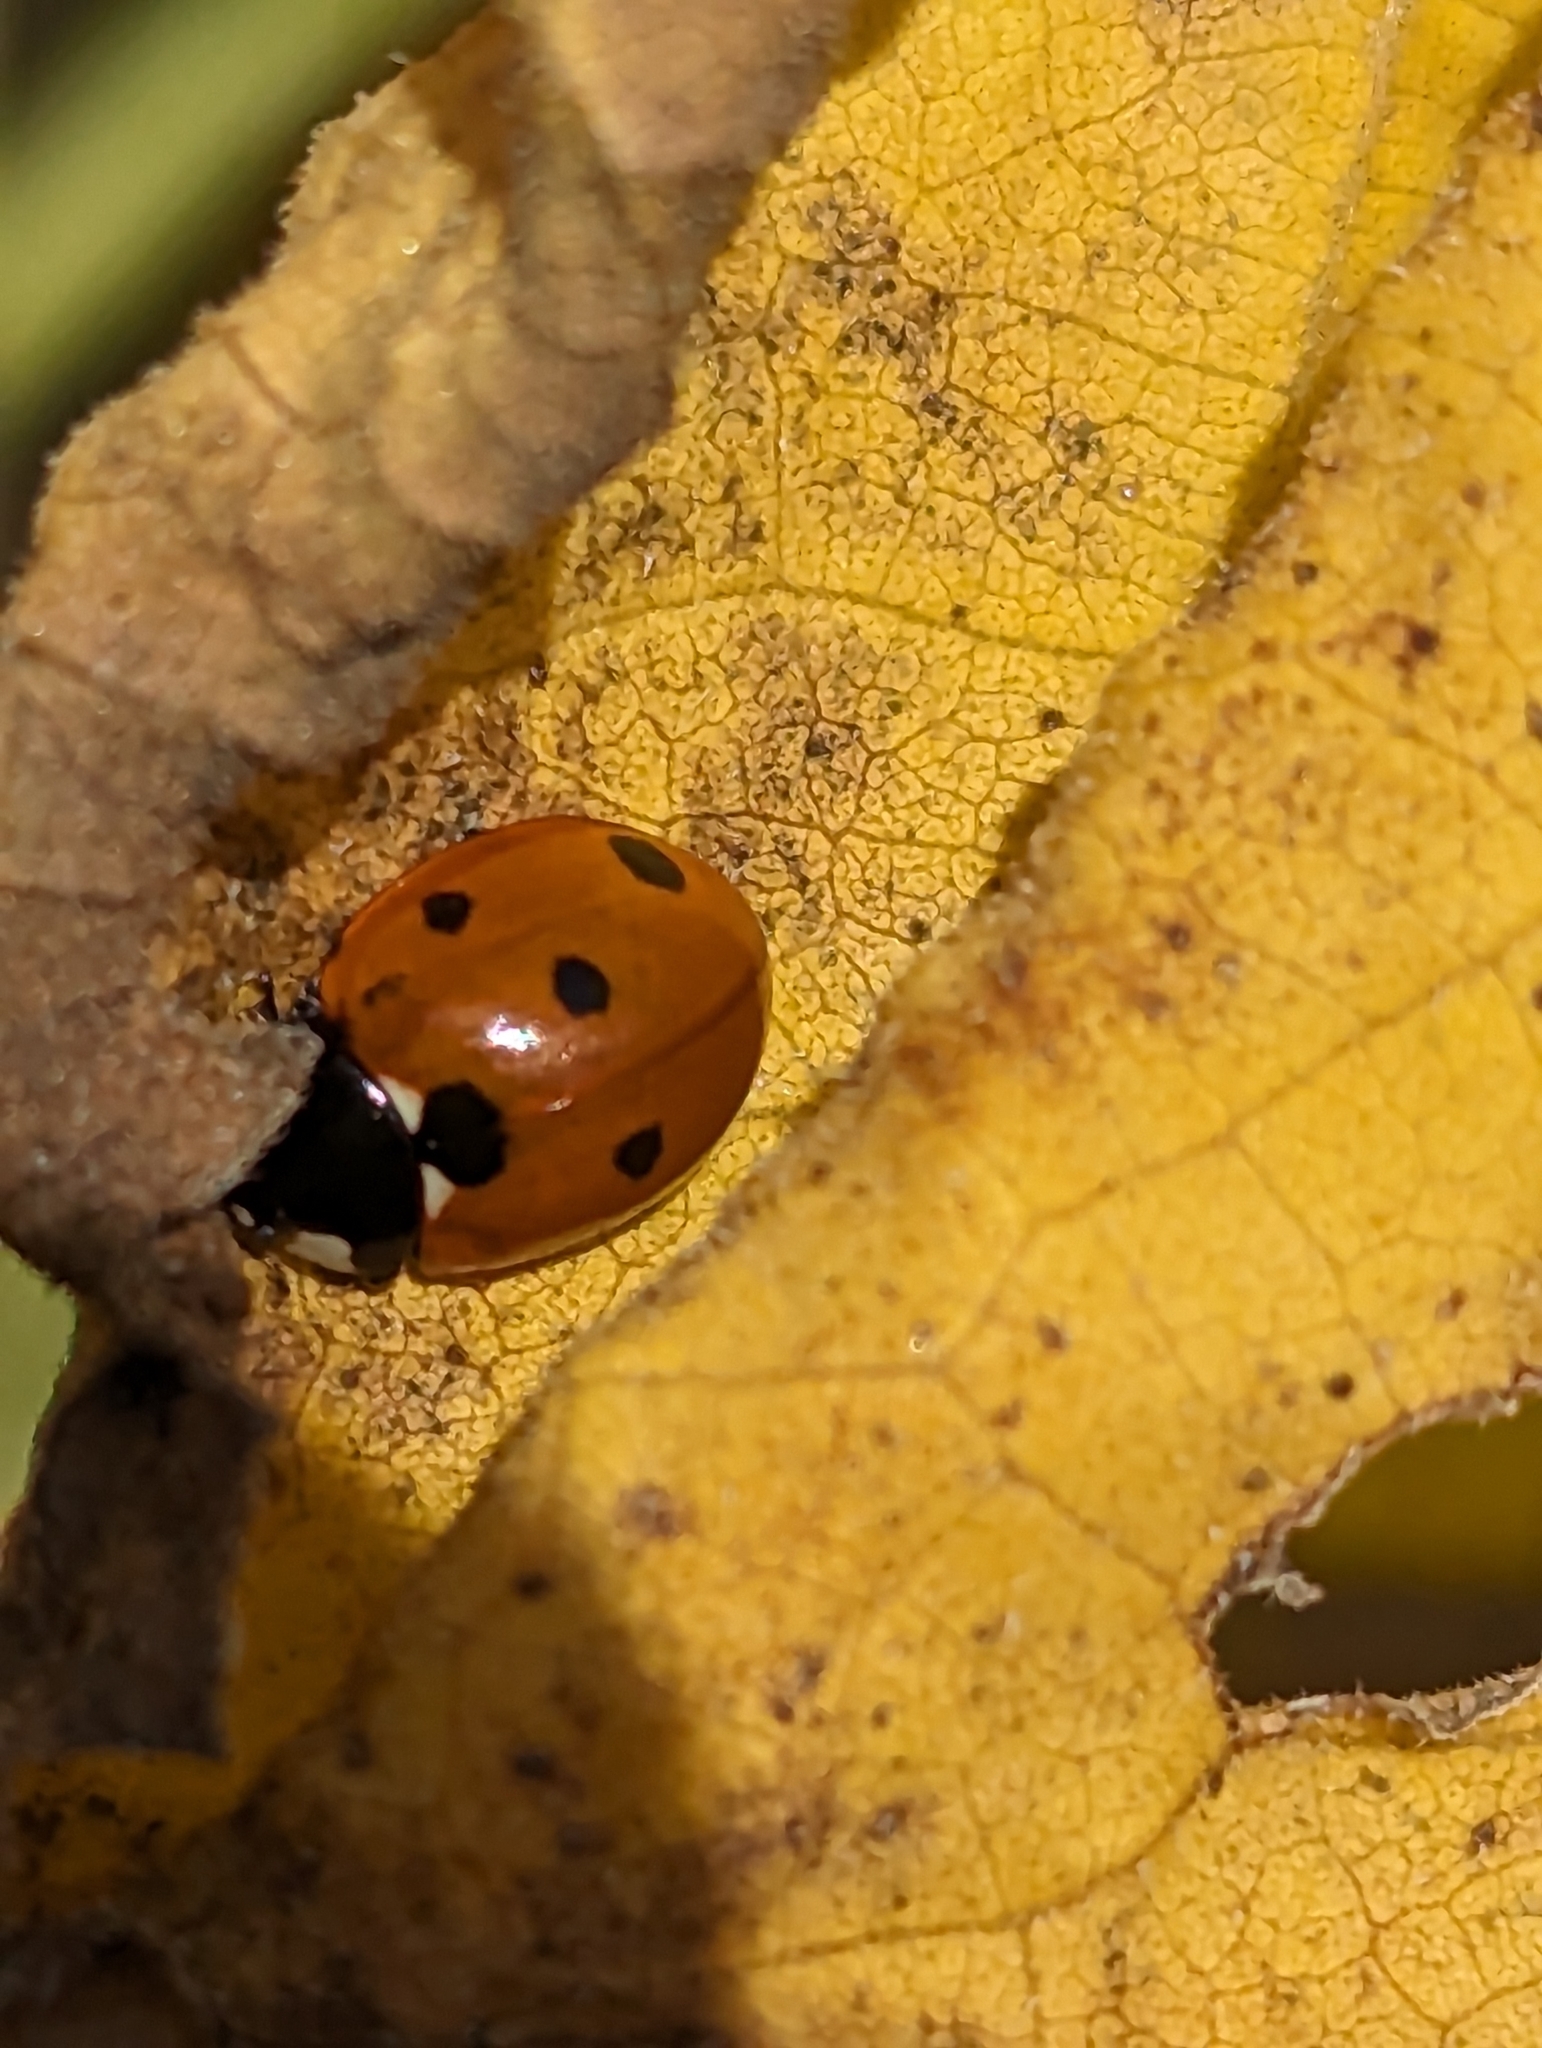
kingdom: Animalia
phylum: Arthropoda
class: Insecta
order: Coleoptera
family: Coccinellidae
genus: Coccinella
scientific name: Coccinella septempunctata
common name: Sevenspotted lady beetle
